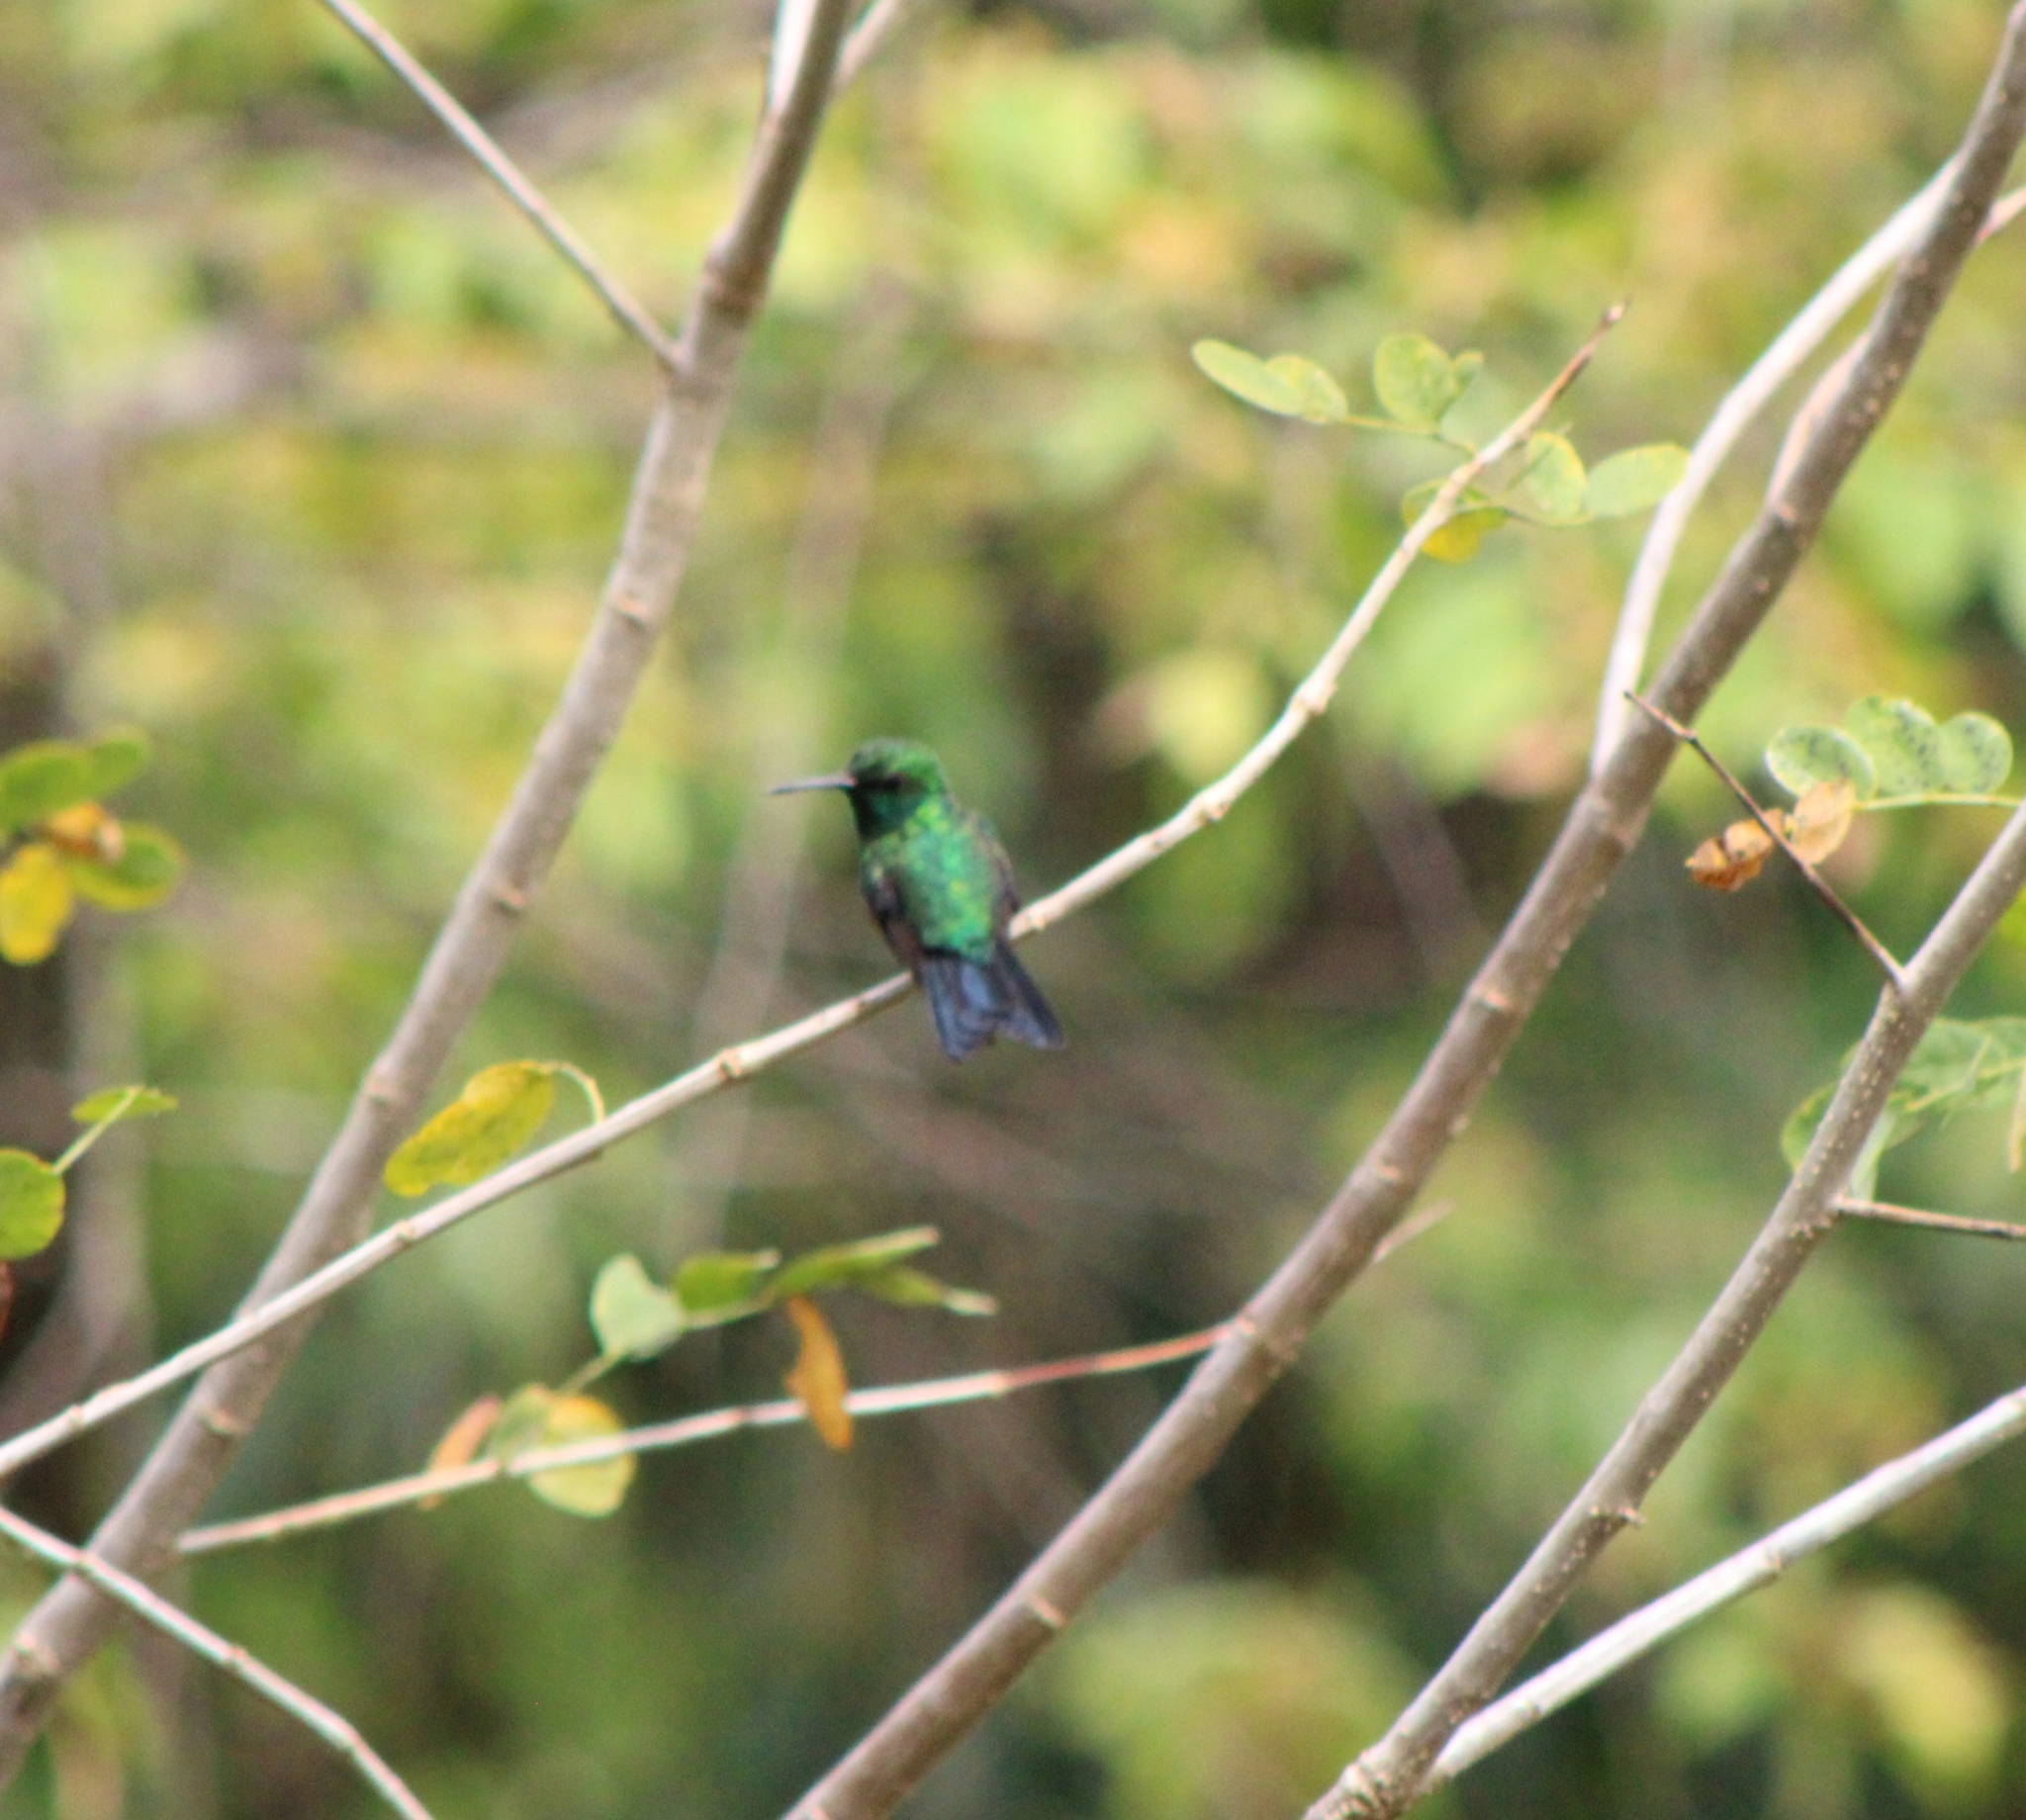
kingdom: Animalia
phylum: Chordata
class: Aves
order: Apodiformes
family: Trochilidae
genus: Chlorostilbon
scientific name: Chlorostilbon assimilis
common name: Garden emerald
